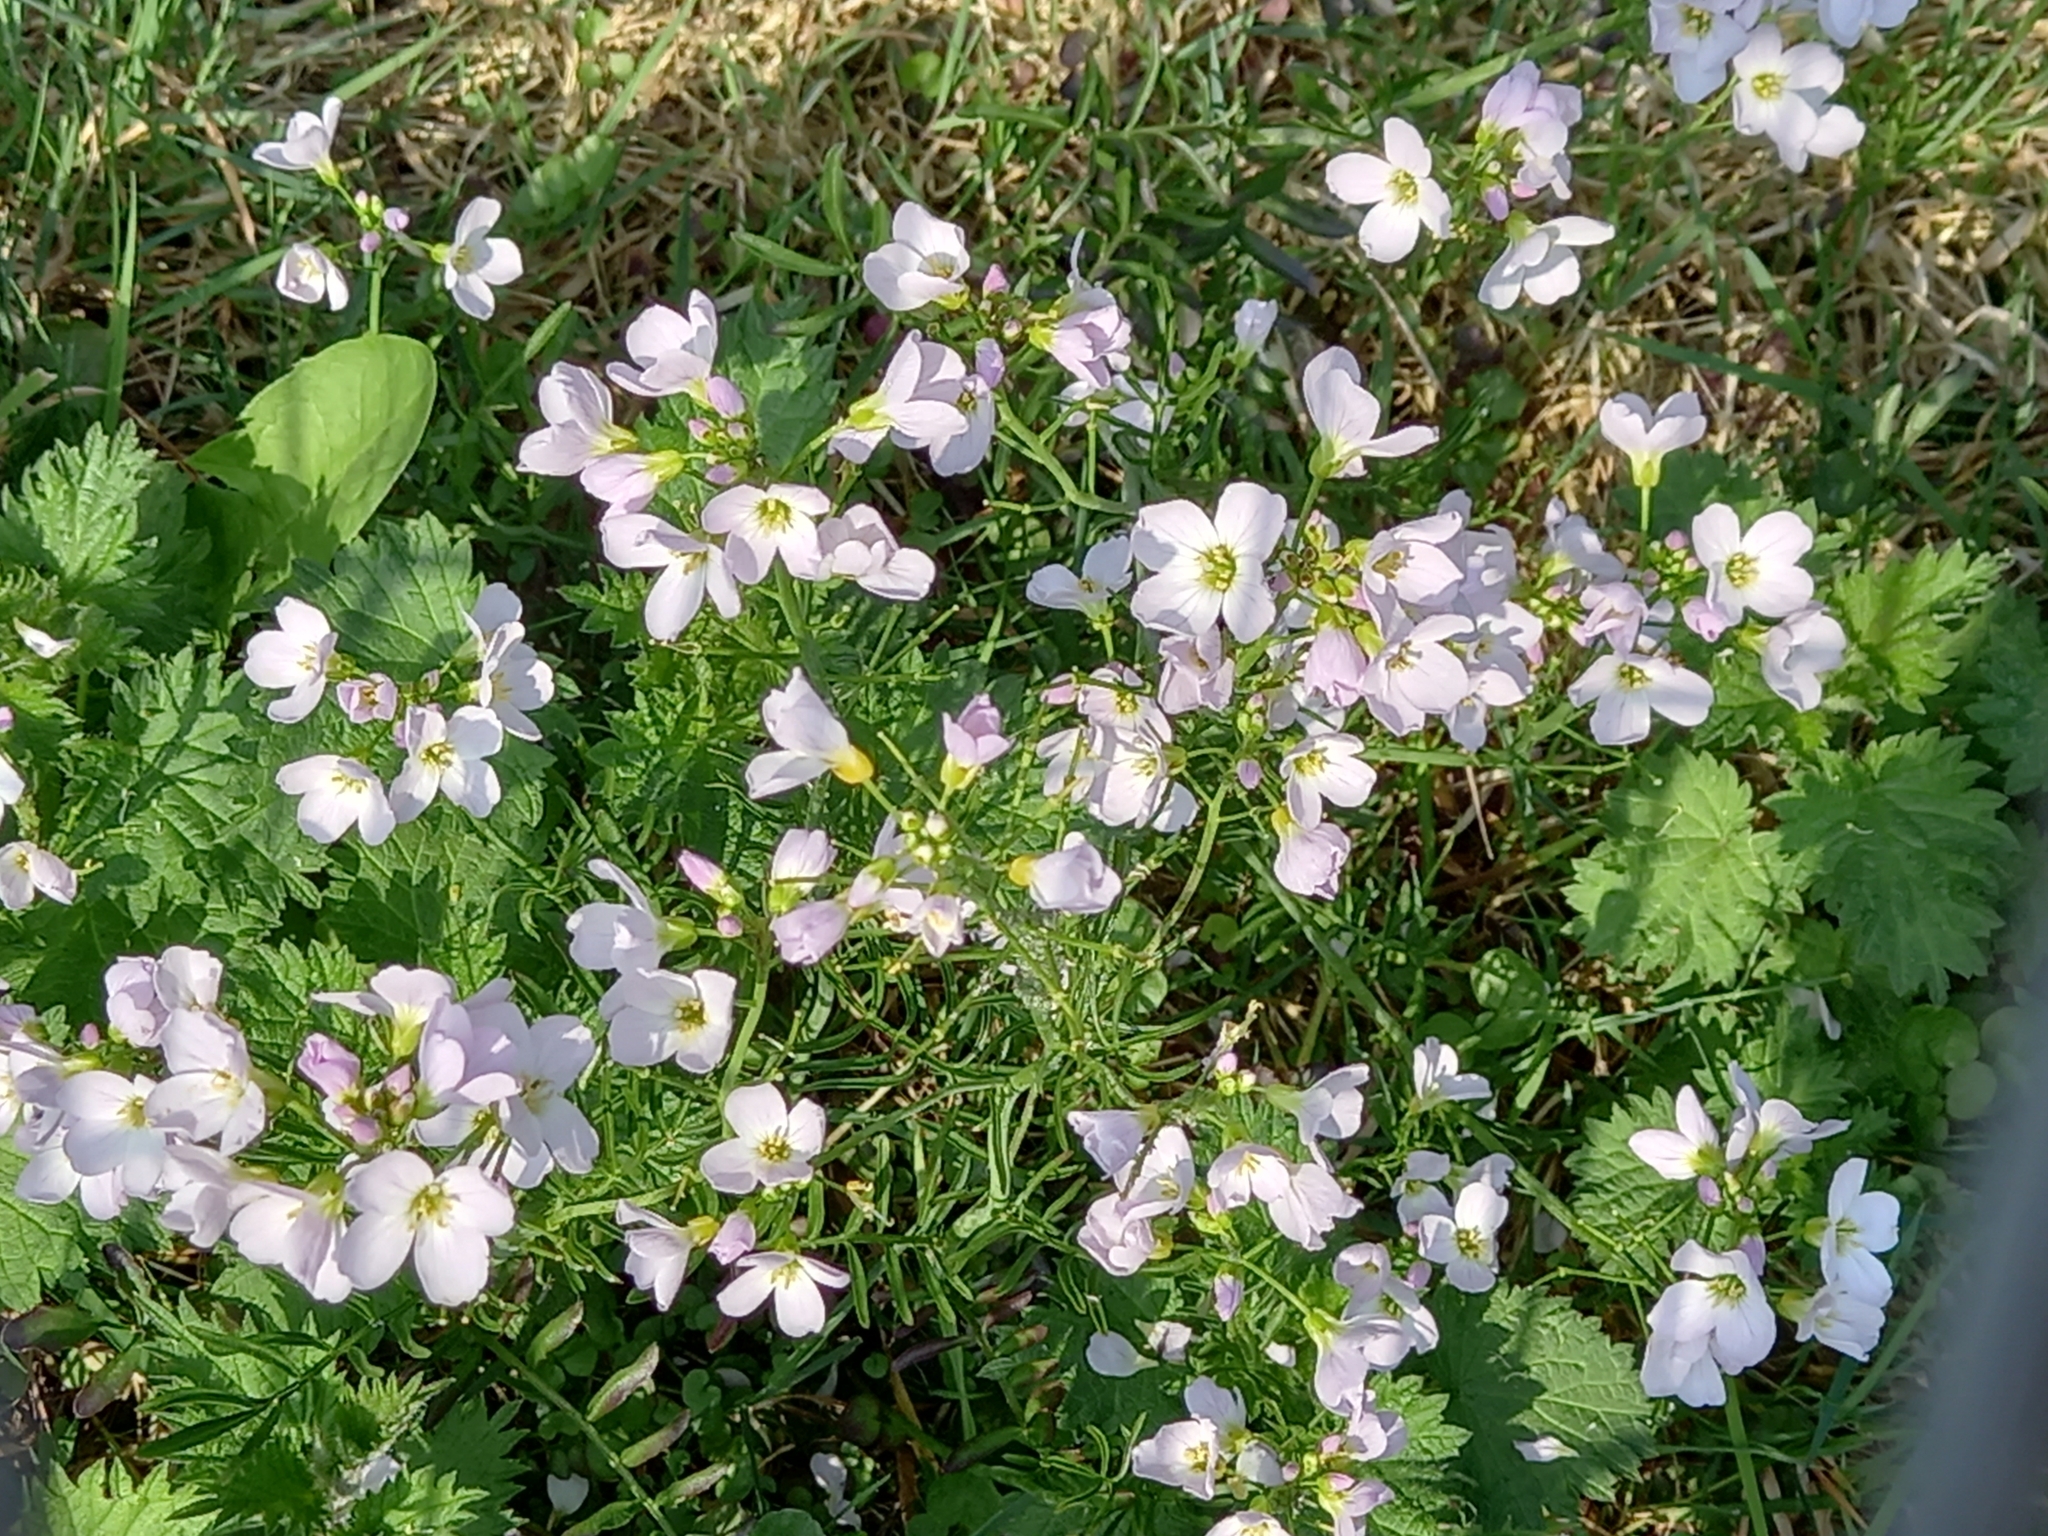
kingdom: Plantae
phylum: Tracheophyta
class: Magnoliopsida
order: Brassicales
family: Brassicaceae
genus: Cardamine
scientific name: Cardamine pratensis
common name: Cuckoo flower
